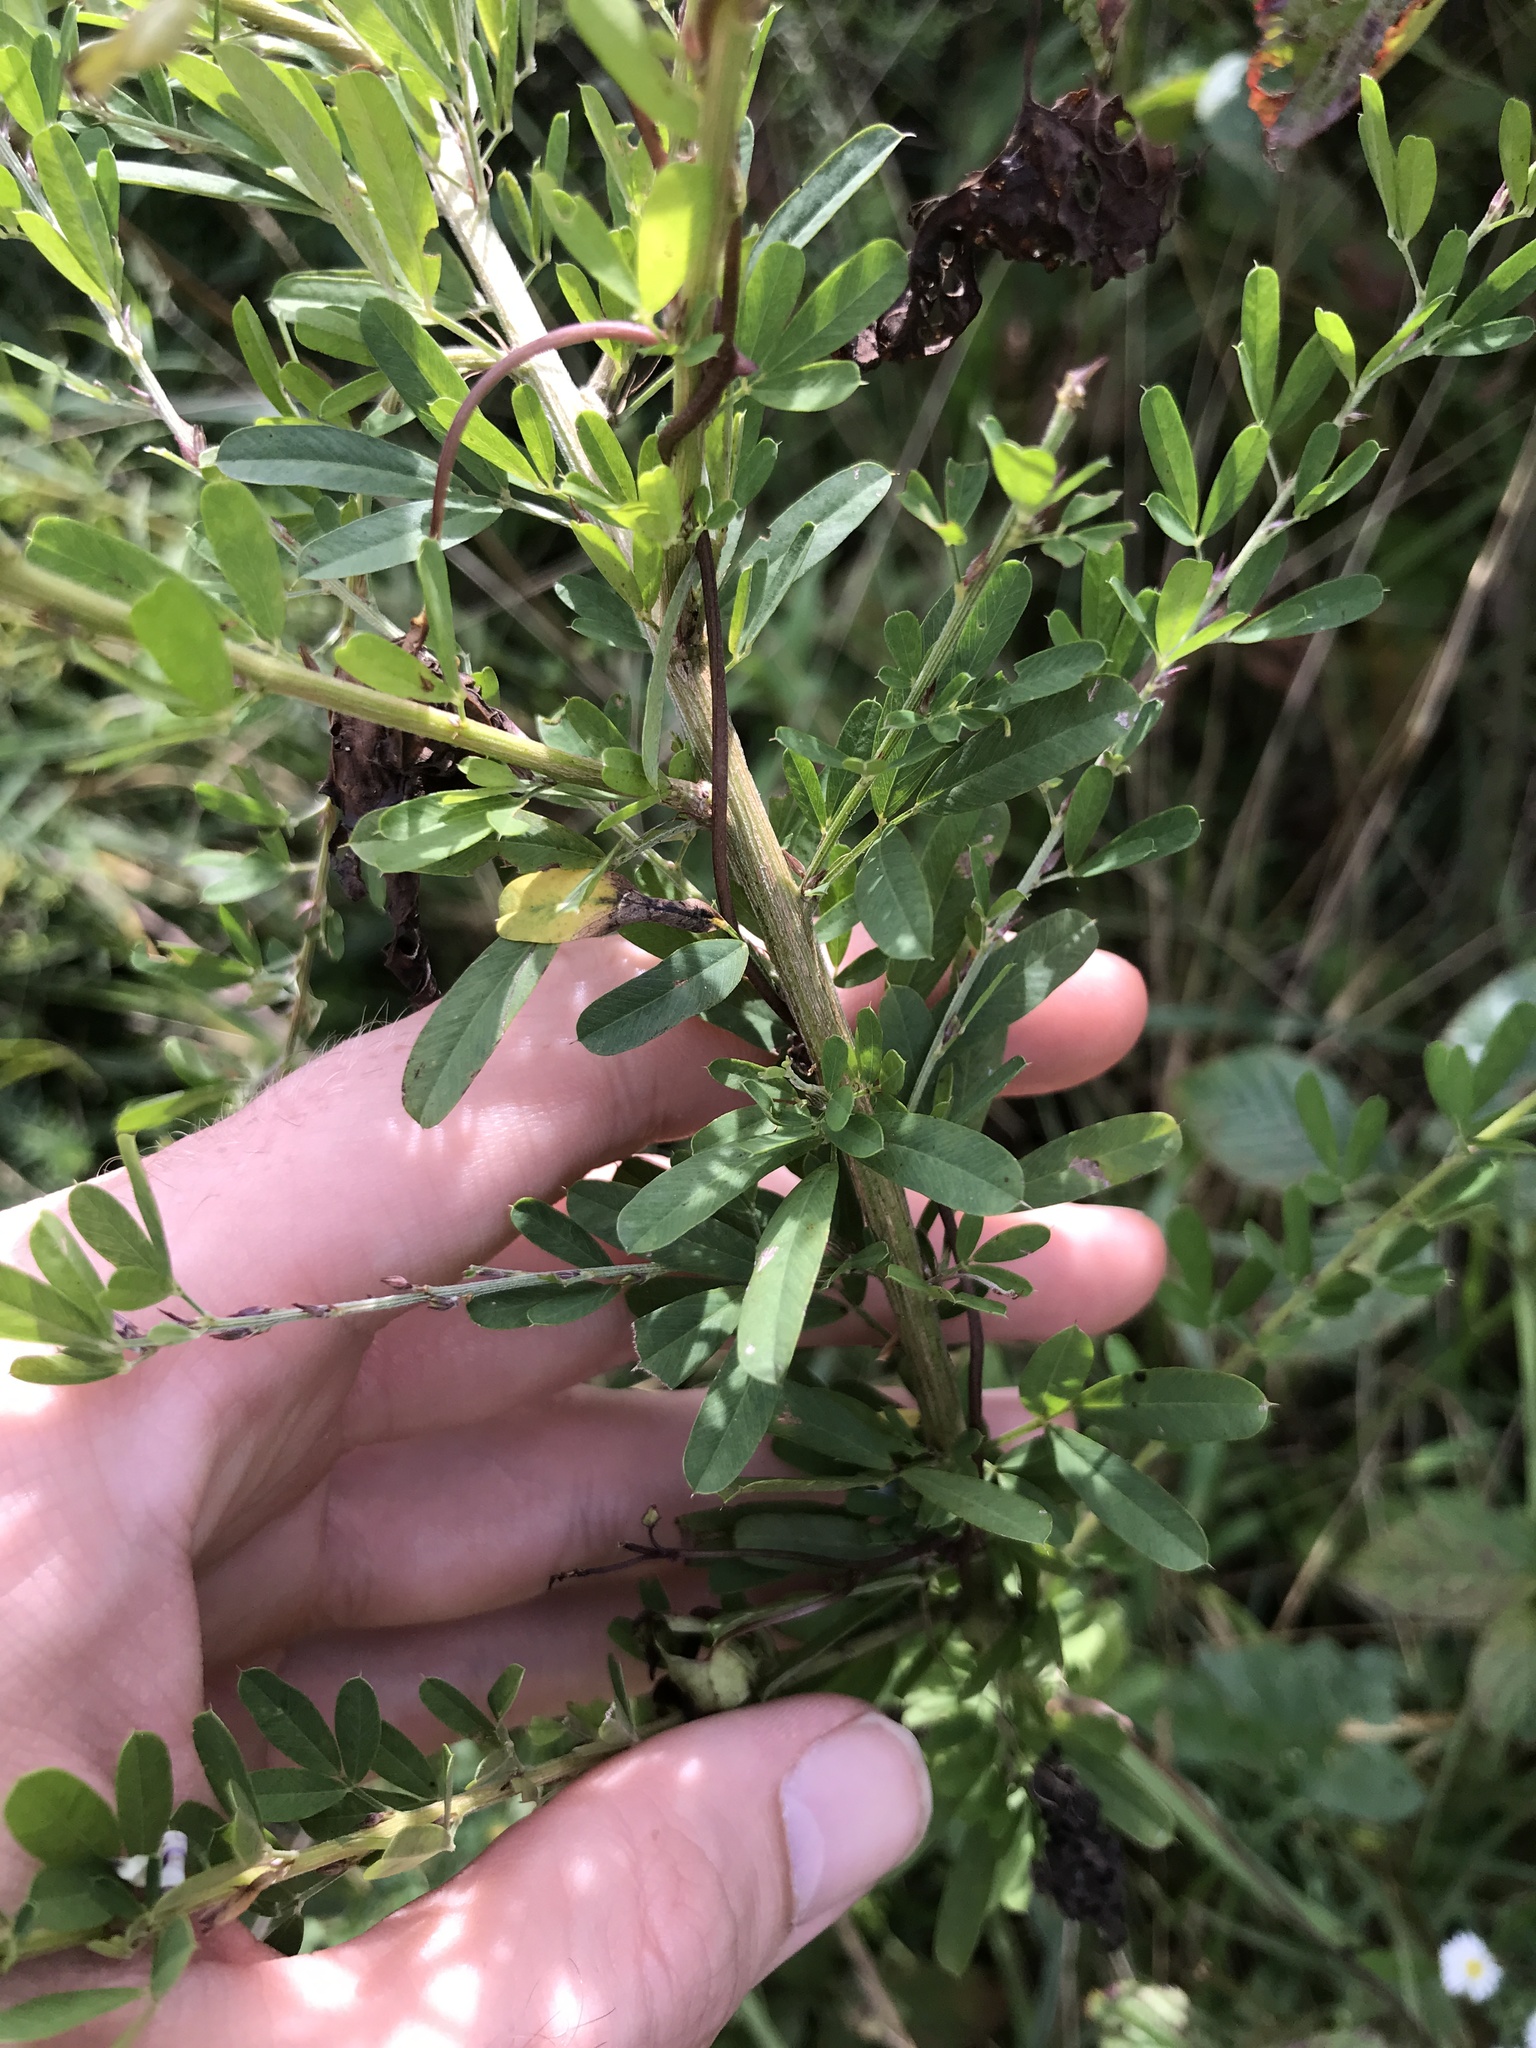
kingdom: Plantae
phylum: Tracheophyta
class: Magnoliopsida
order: Fabales
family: Fabaceae
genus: Lespedeza
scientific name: Lespedeza cuneata
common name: Chinese bush-clover
